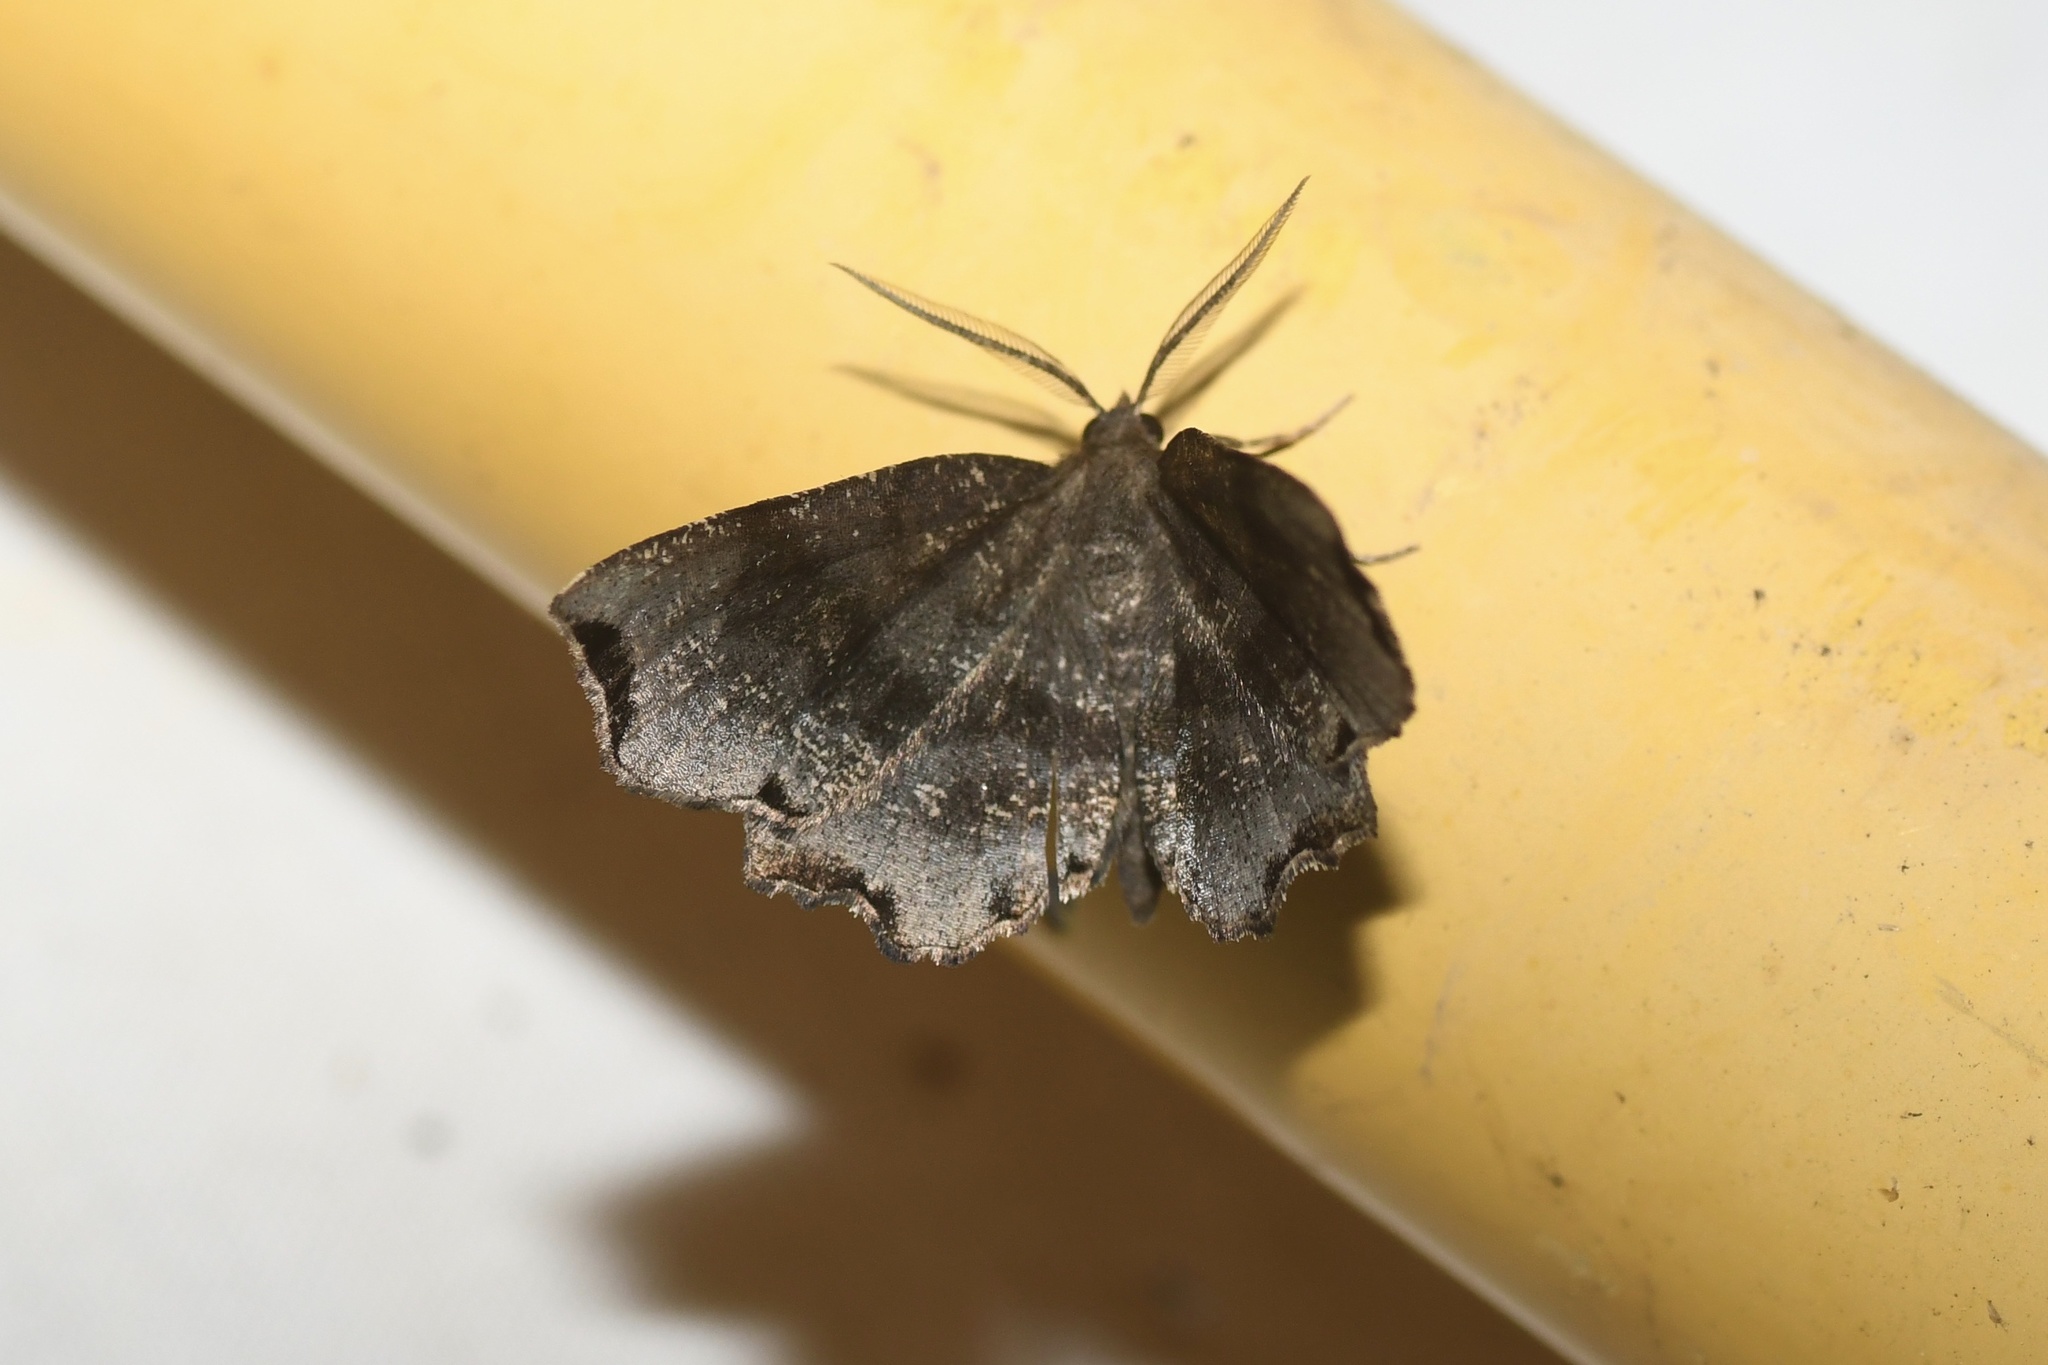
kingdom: Animalia
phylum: Arthropoda
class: Insecta
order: Lepidoptera
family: Geometridae
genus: Cepphis
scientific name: Cepphis decoloraria
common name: Dark scallop moth
